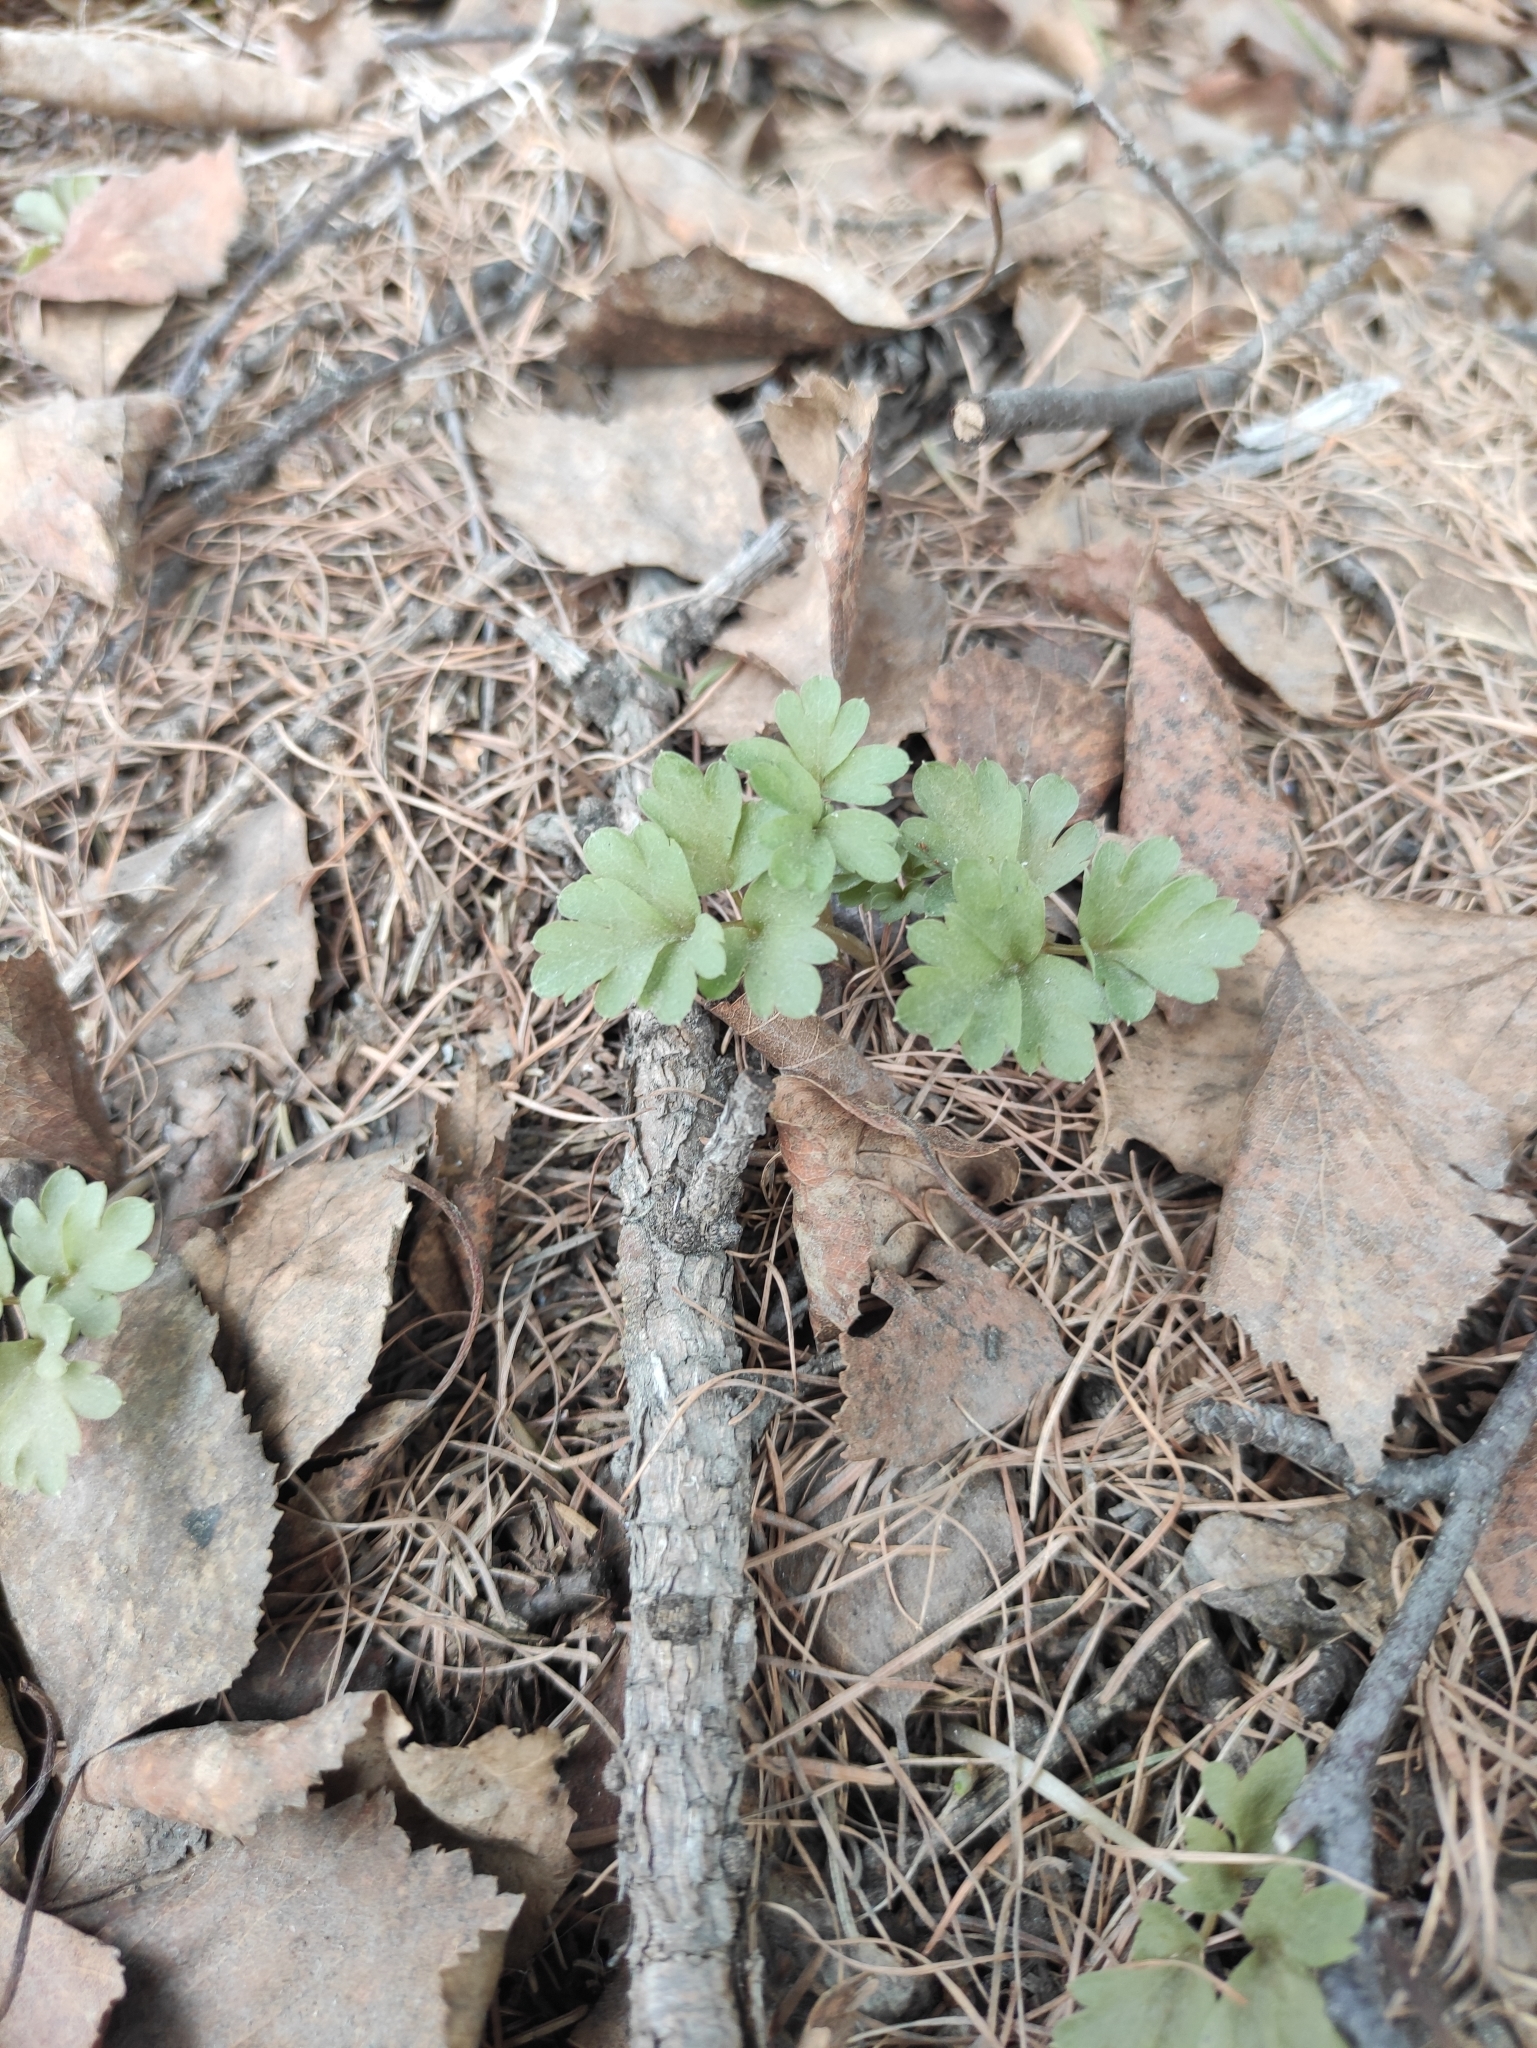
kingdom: Plantae
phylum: Tracheophyta
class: Magnoliopsida
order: Dipsacales
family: Viburnaceae
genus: Adoxa
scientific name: Adoxa moschatellina
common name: Moschatel
